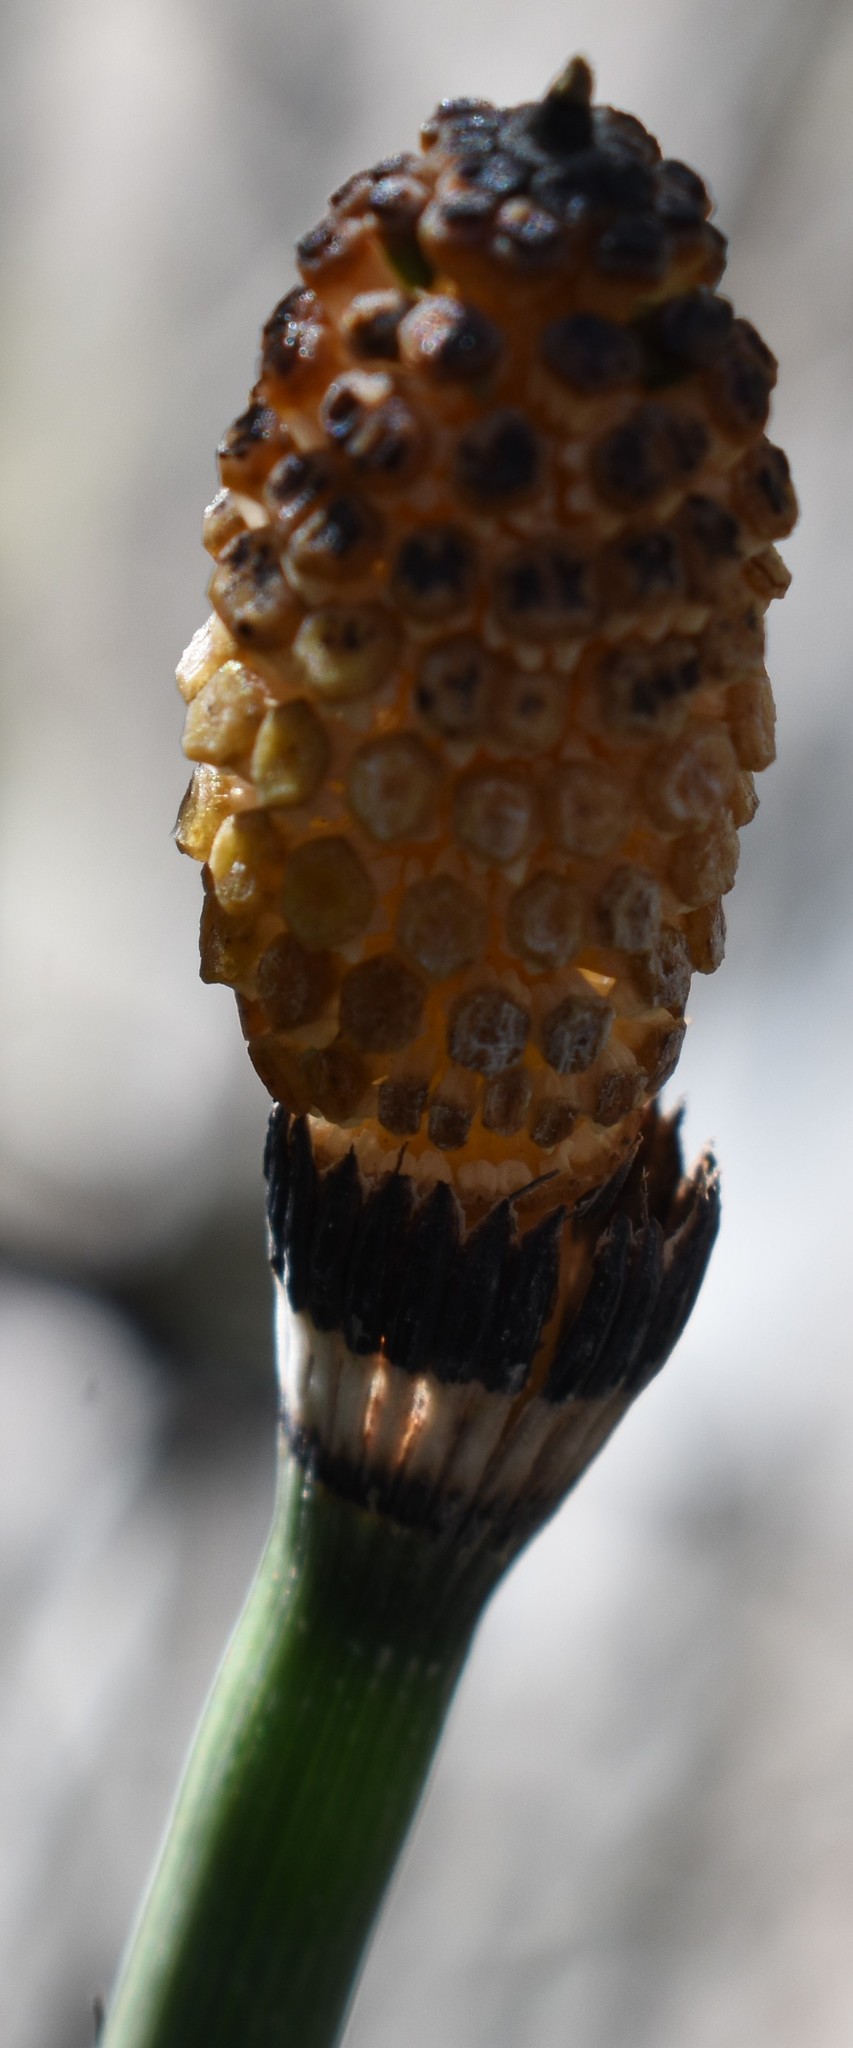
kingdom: Plantae
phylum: Tracheophyta
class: Polypodiopsida
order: Equisetales
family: Equisetaceae
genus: Equisetum
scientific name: Equisetum hyemale
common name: Rough horsetail
